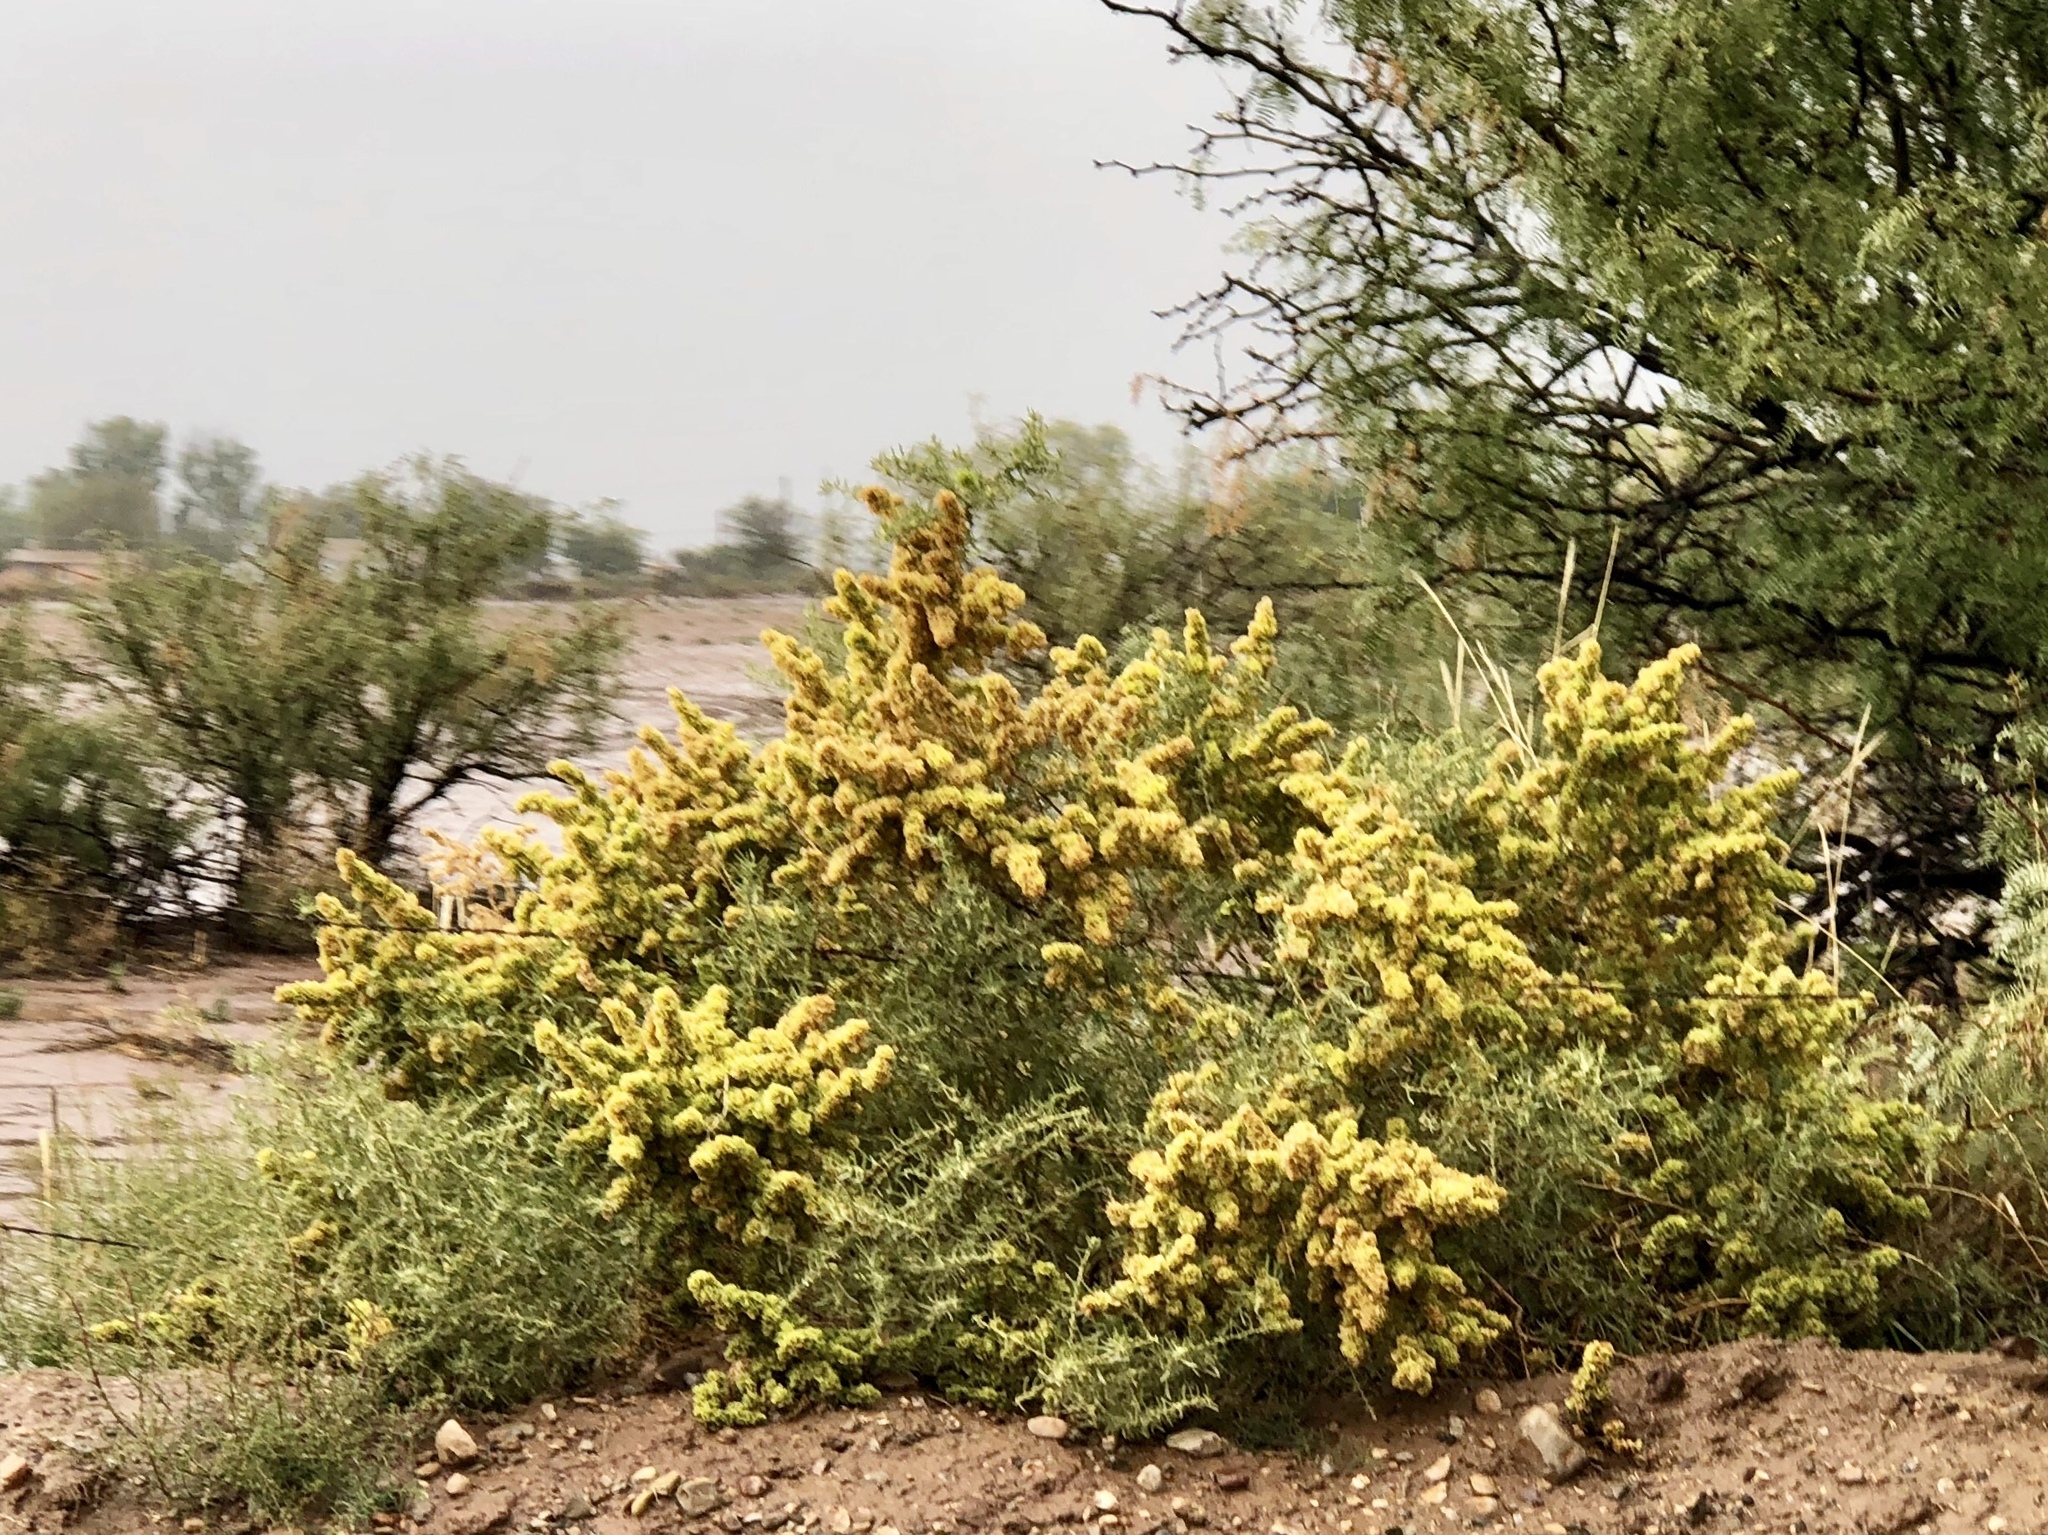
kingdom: Plantae
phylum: Tracheophyta
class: Magnoliopsida
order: Caryophyllales
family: Amaranthaceae
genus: Atriplex
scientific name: Atriplex canescens
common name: Four-wing saltbush
